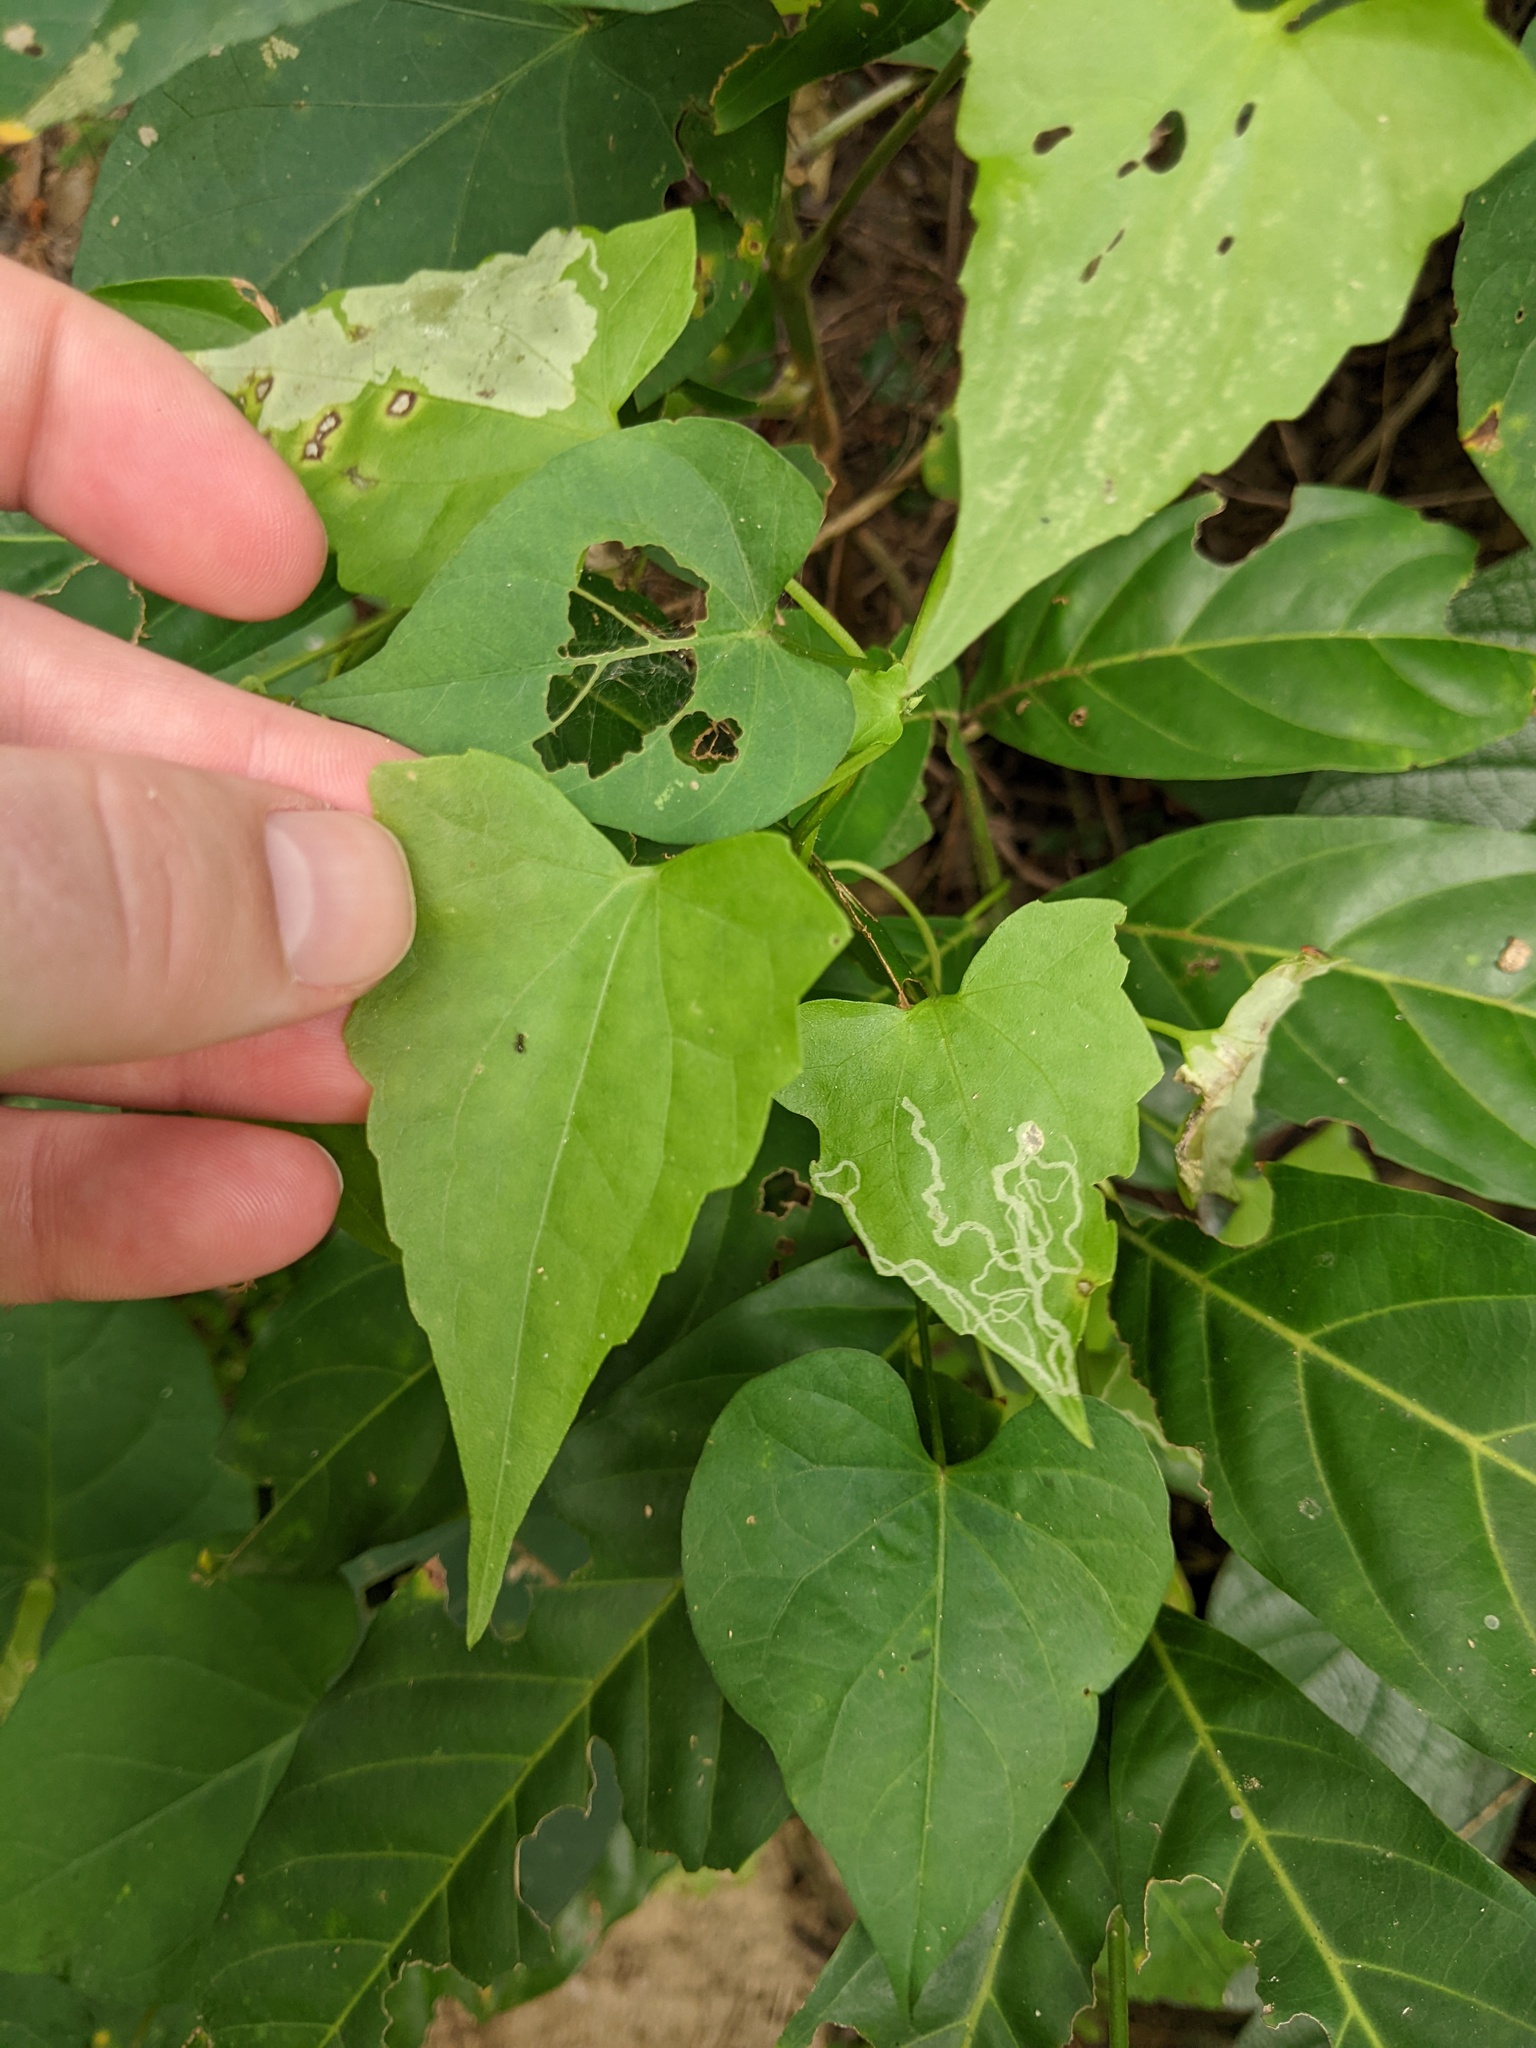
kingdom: Plantae
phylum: Tracheophyta
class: Magnoliopsida
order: Asterales
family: Asteraceae
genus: Mikania
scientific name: Mikania micrantha
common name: Mile-a-minute
